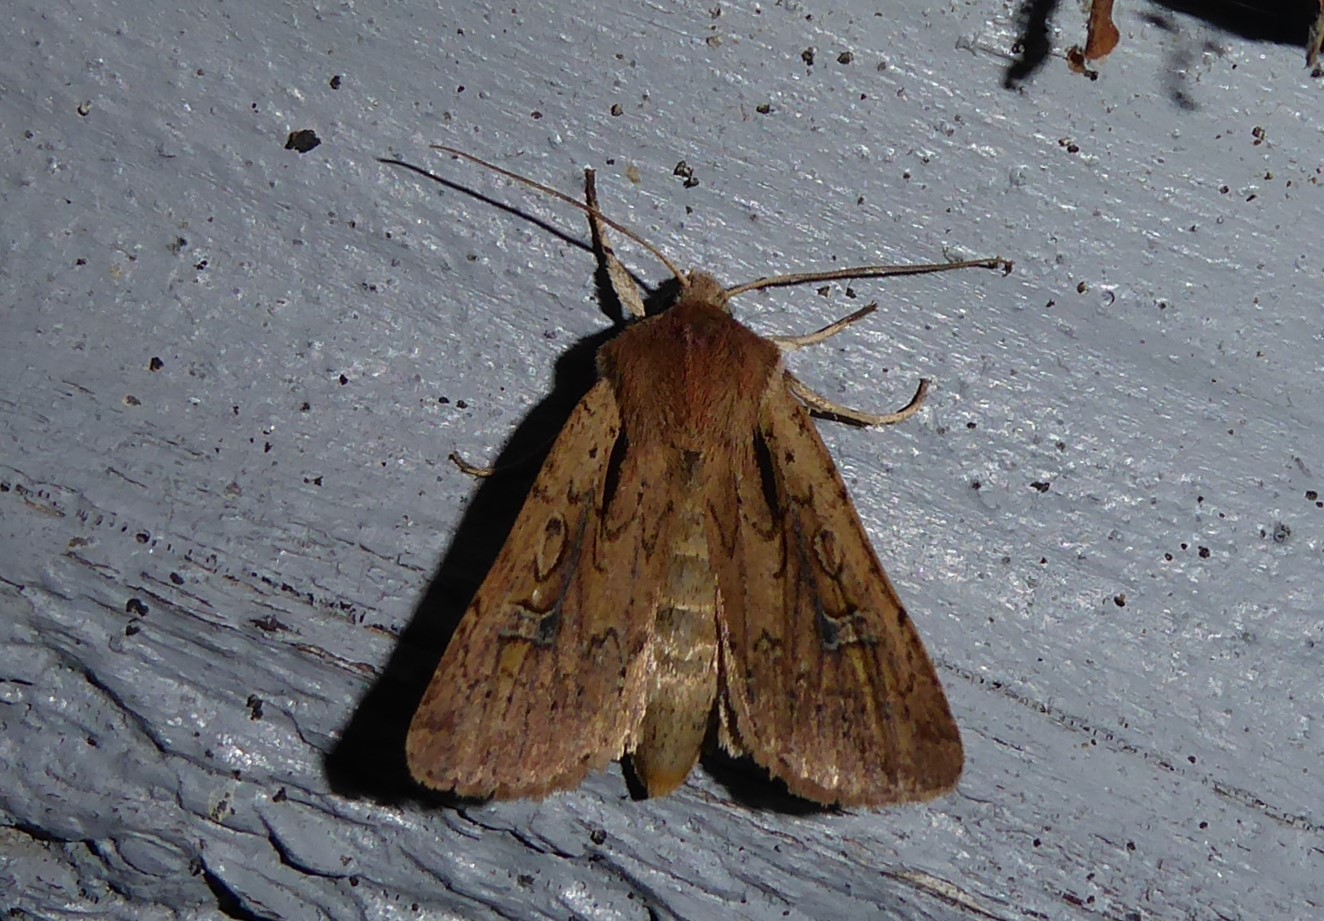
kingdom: Animalia
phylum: Arthropoda
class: Insecta
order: Lepidoptera
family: Noctuidae
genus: Ichneutica
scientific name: Ichneutica atristriga
